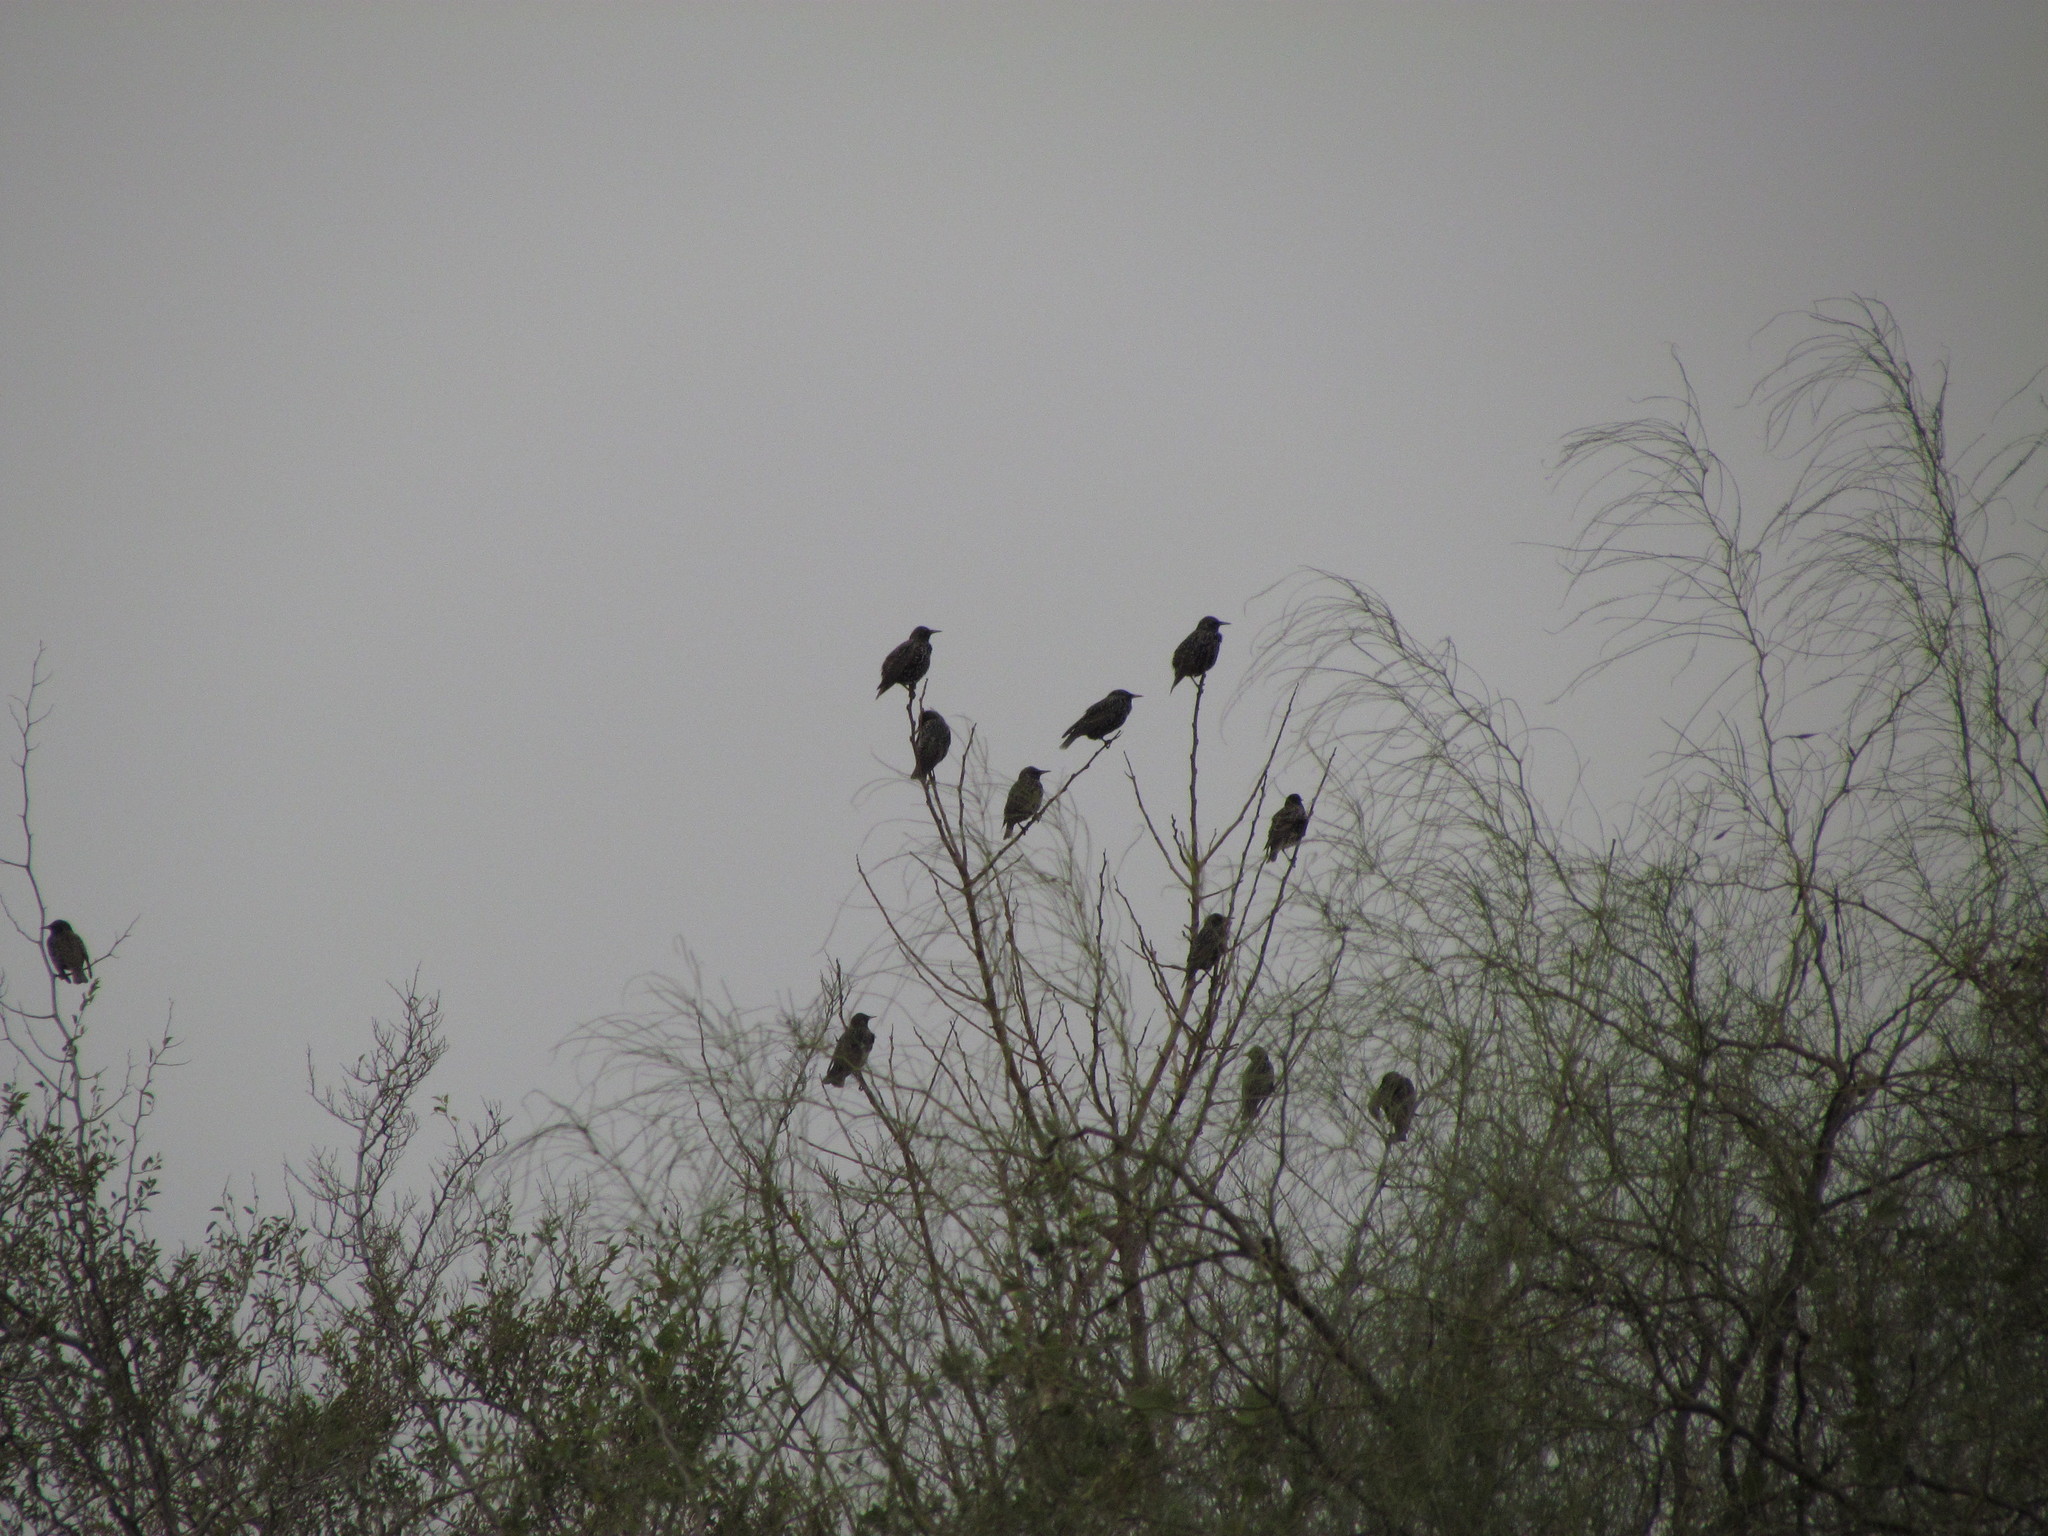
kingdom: Animalia
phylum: Chordata
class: Aves
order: Passeriformes
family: Sturnidae
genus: Sturnus
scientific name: Sturnus vulgaris
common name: Common starling
